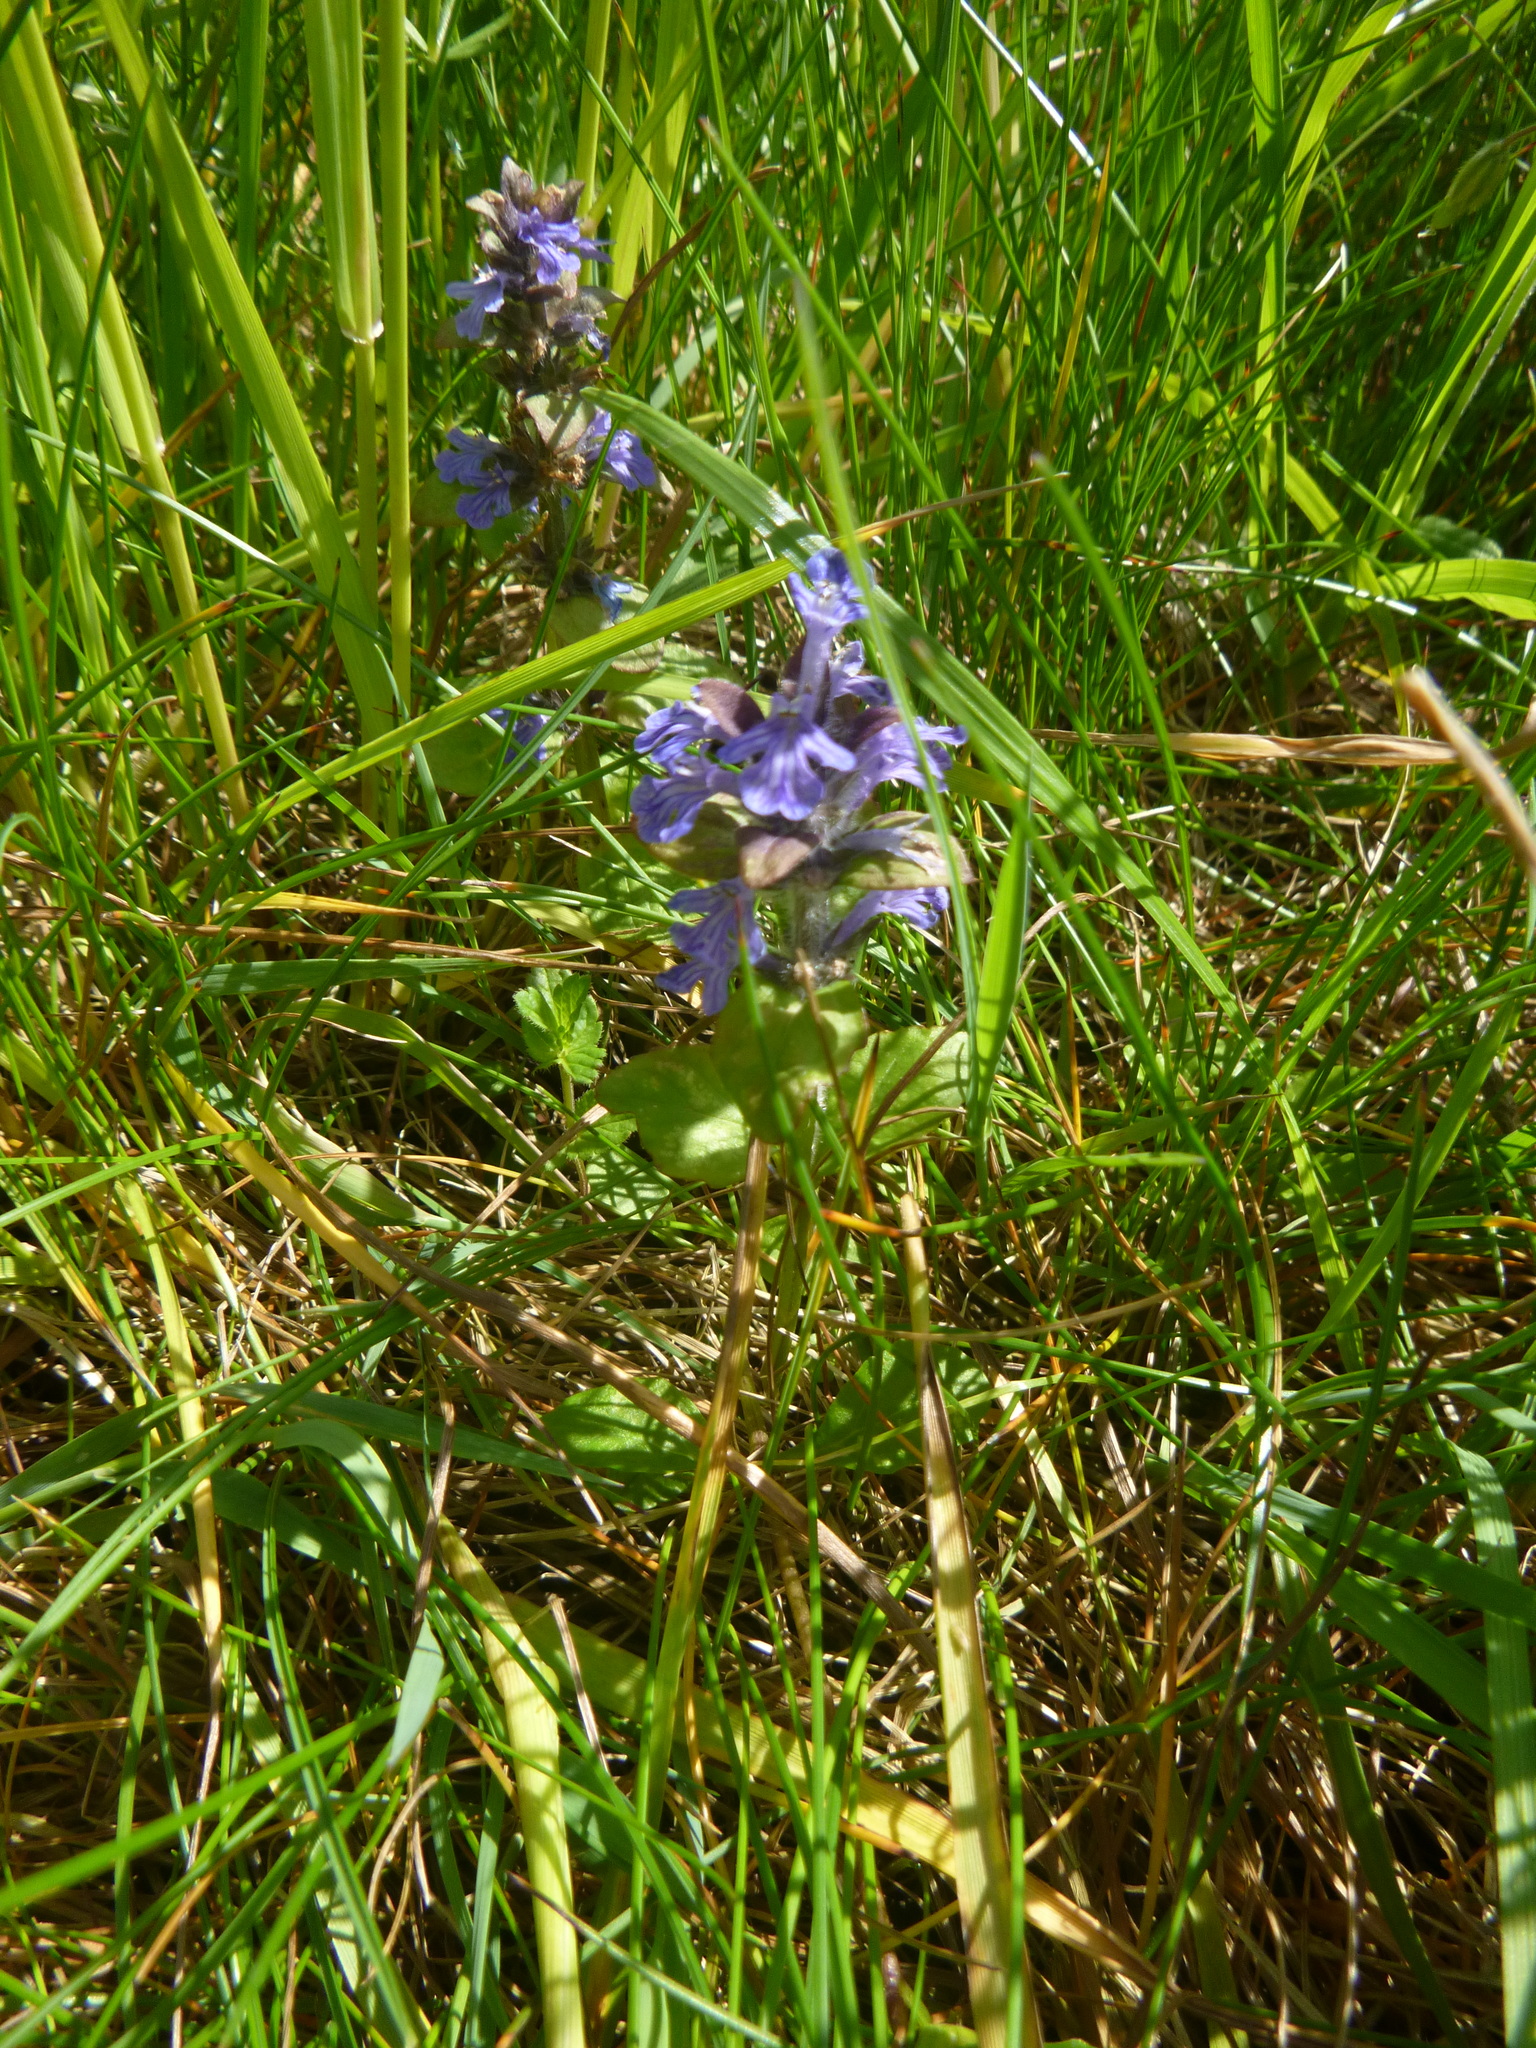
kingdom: Plantae
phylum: Tracheophyta
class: Magnoliopsida
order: Lamiales
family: Lamiaceae
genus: Ajuga
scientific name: Ajuga reptans
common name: Bugle
